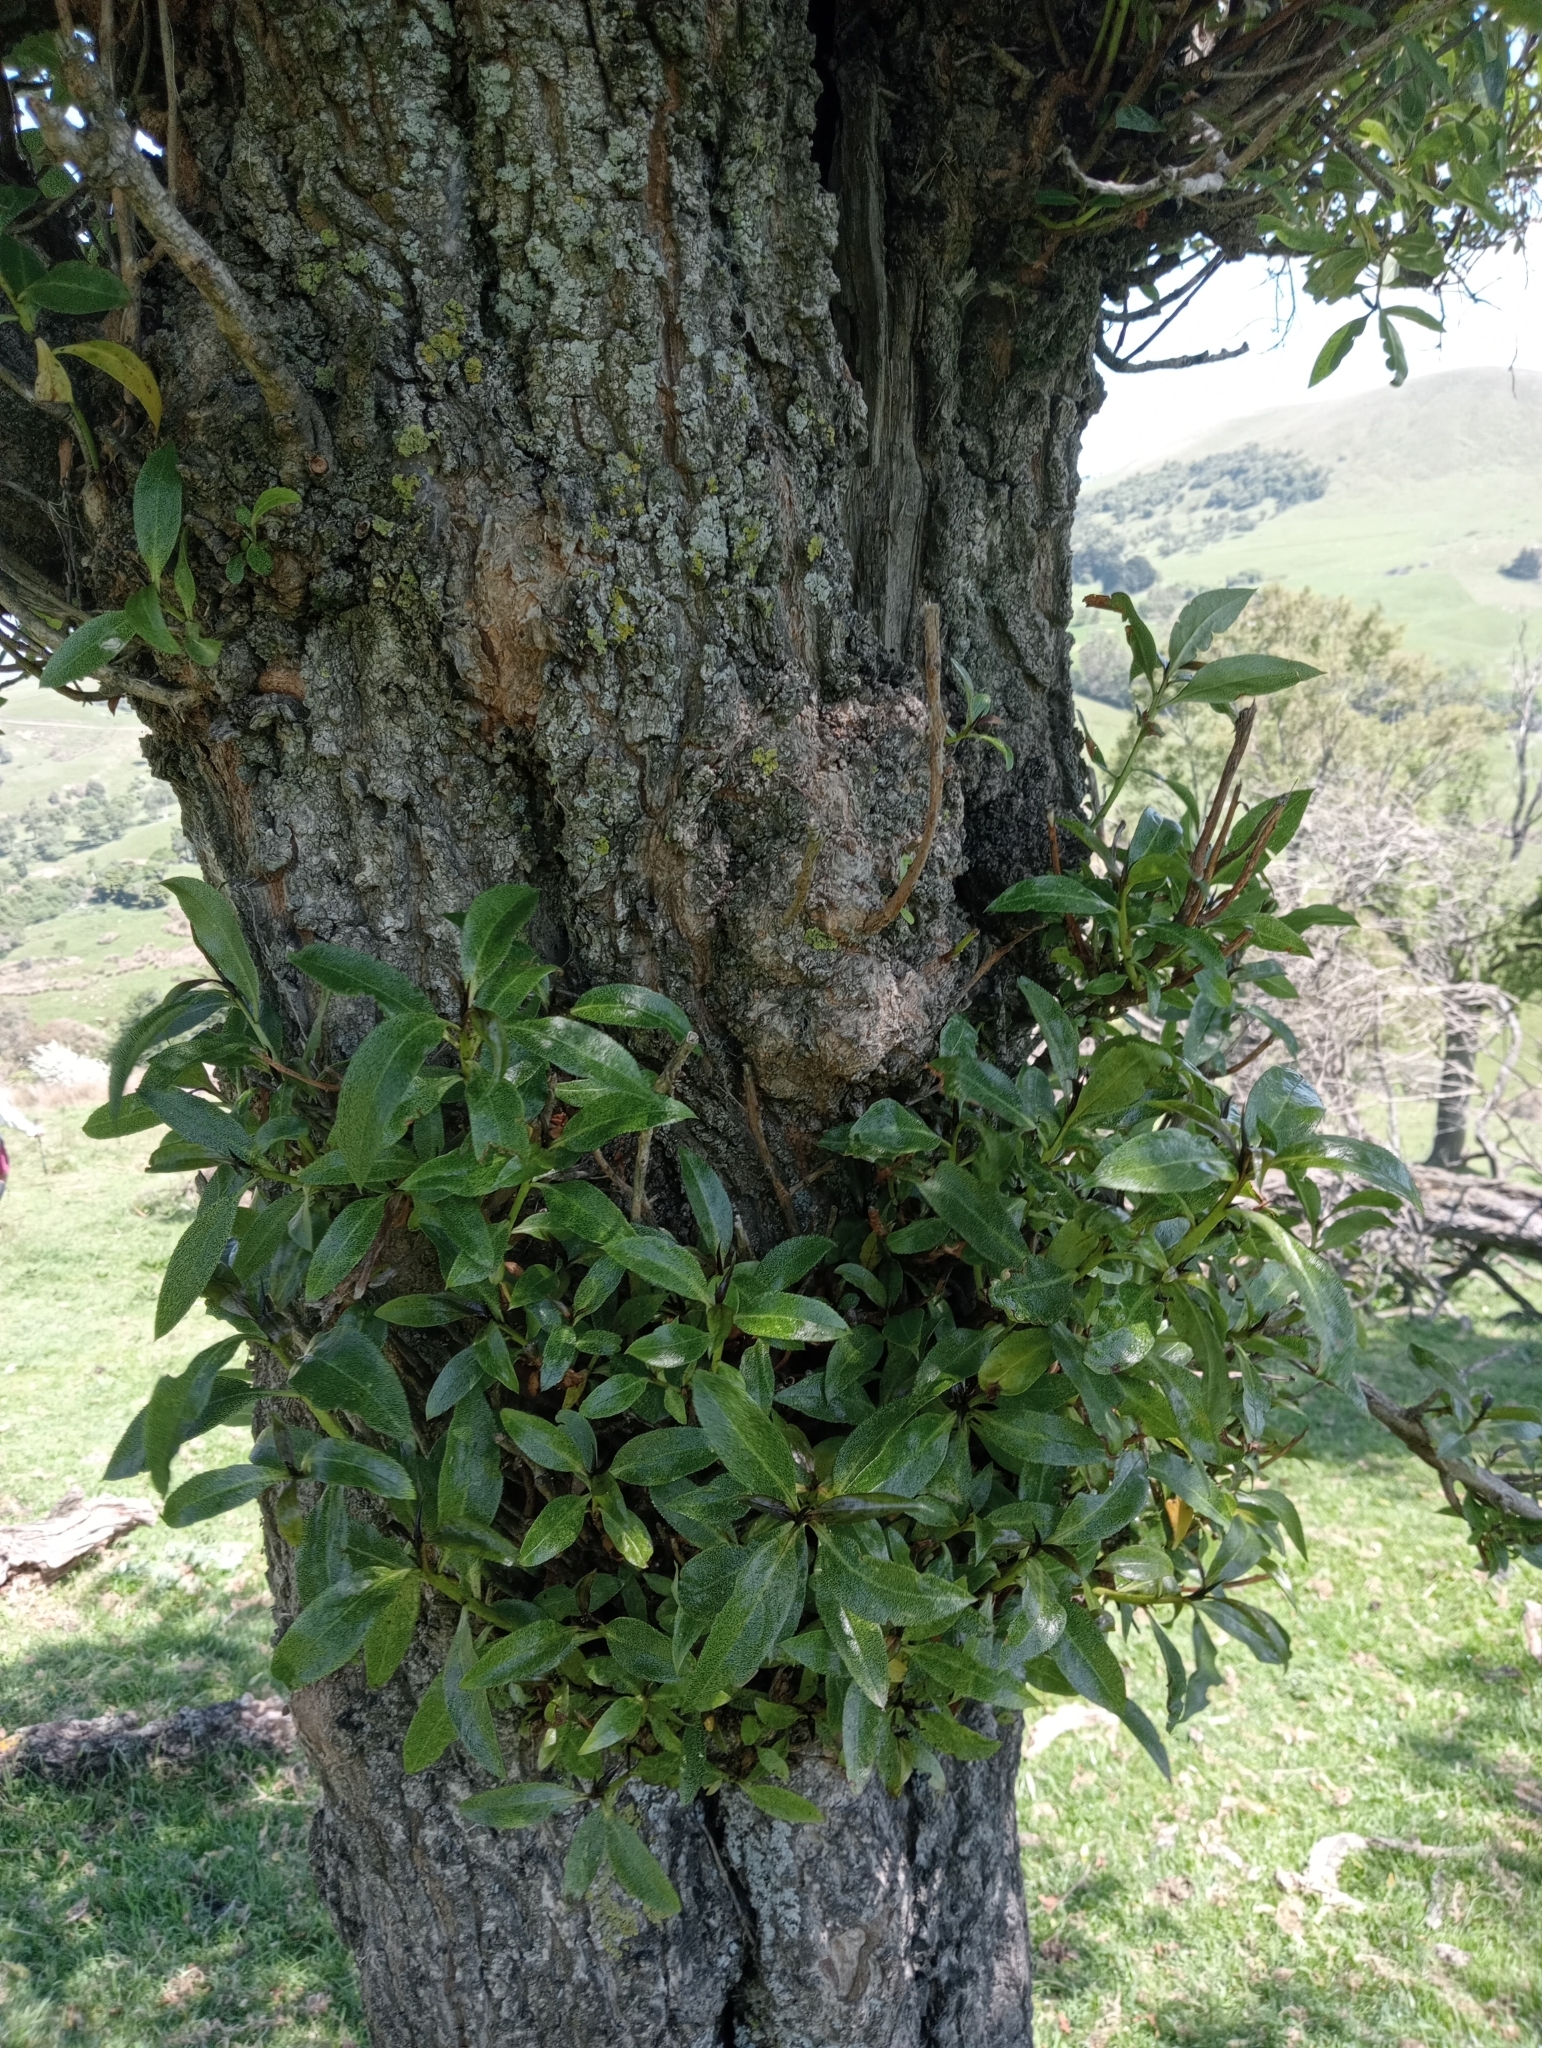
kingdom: Plantae
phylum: Tracheophyta
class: Magnoliopsida
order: Lamiales
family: Scrophulariaceae
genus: Myoporum
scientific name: Myoporum laetum
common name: Ngaio tree
